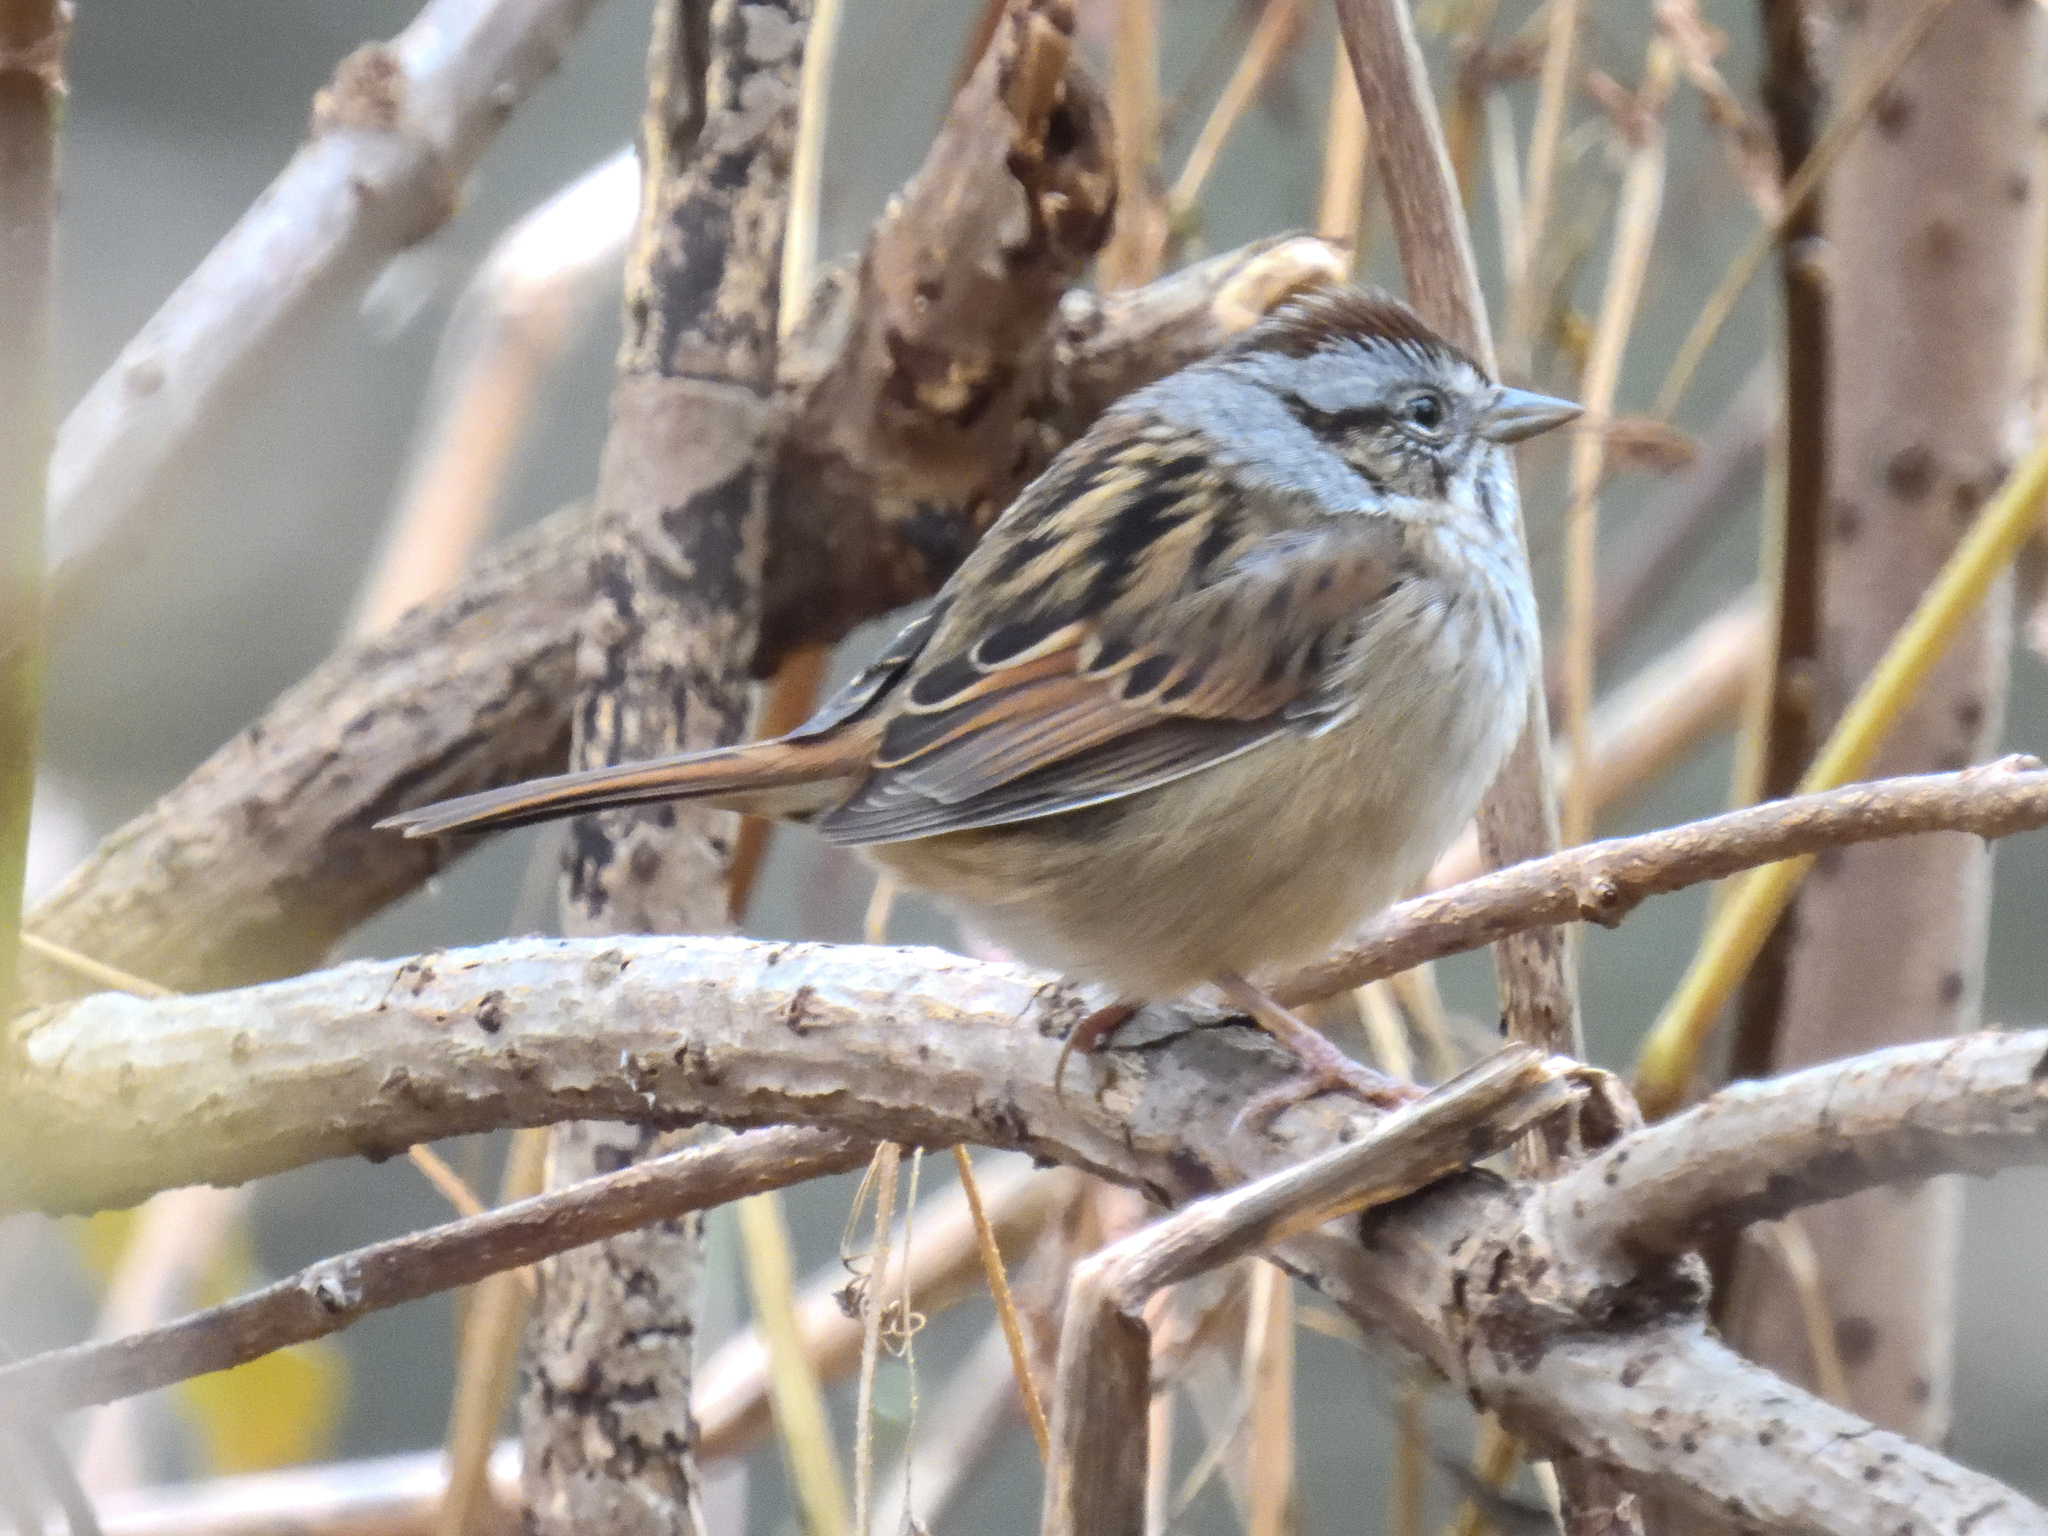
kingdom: Animalia
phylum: Chordata
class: Aves
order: Passeriformes
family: Passerellidae
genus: Melospiza
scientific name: Melospiza georgiana
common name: Swamp sparrow
